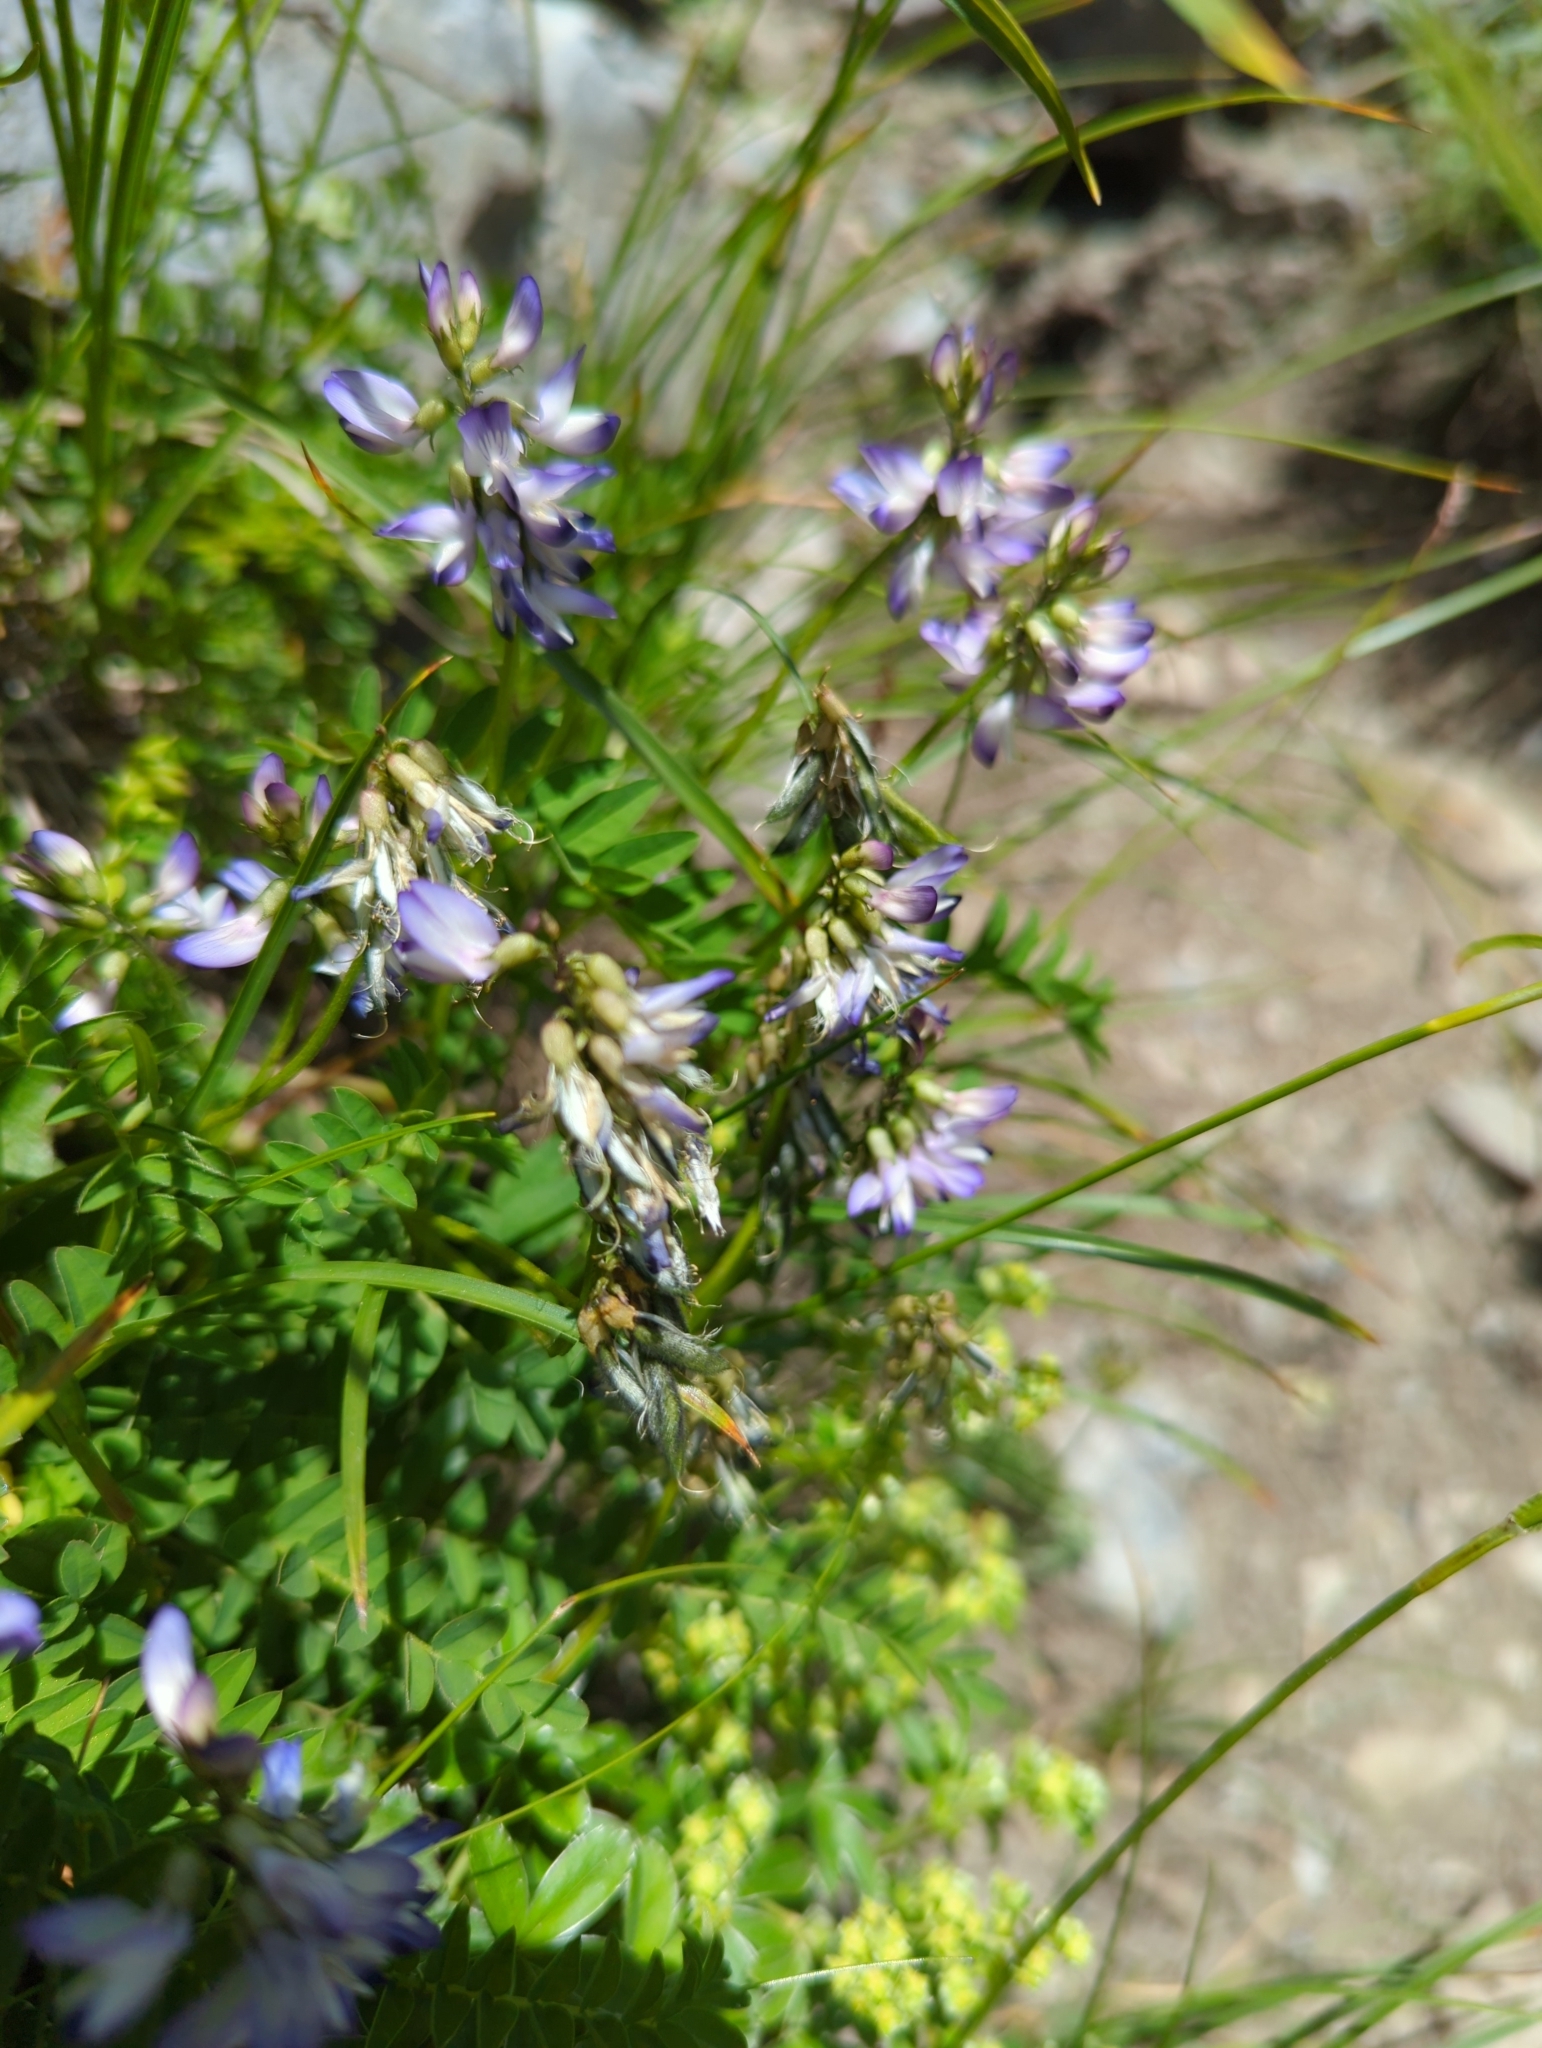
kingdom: Plantae
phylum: Tracheophyta
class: Magnoliopsida
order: Fabales
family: Fabaceae
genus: Astragalus
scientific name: Astragalus alpinus
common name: Alpine milk-vetch
